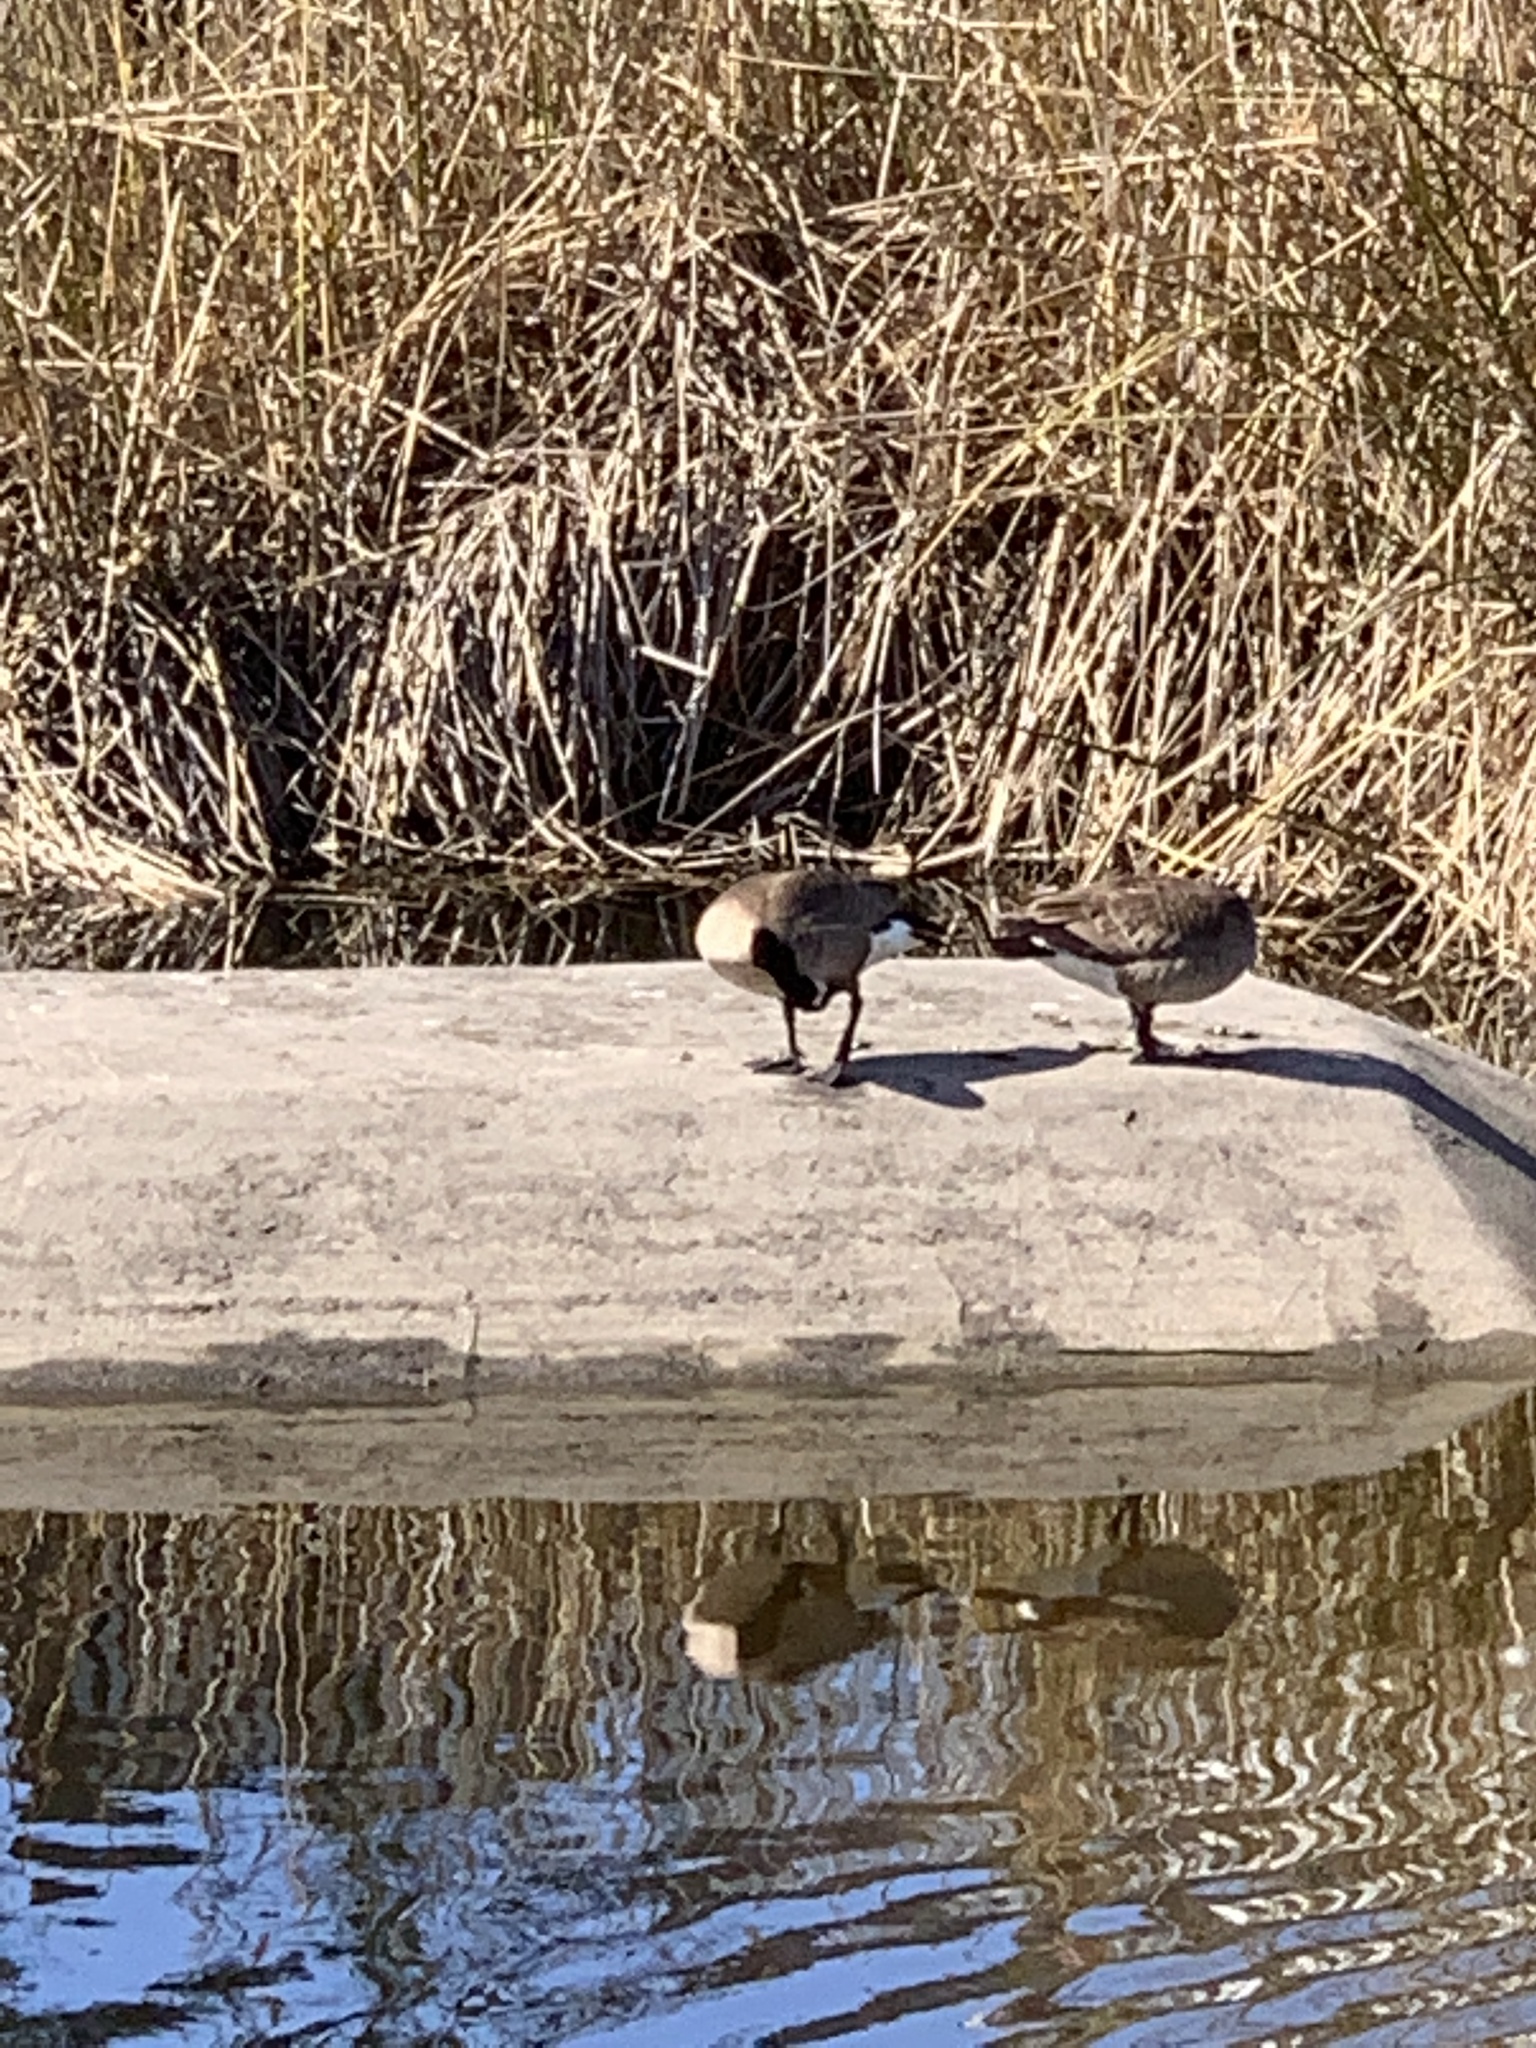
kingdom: Animalia
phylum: Chordata
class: Aves
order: Anseriformes
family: Anatidae
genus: Branta
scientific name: Branta canadensis
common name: Canada goose
